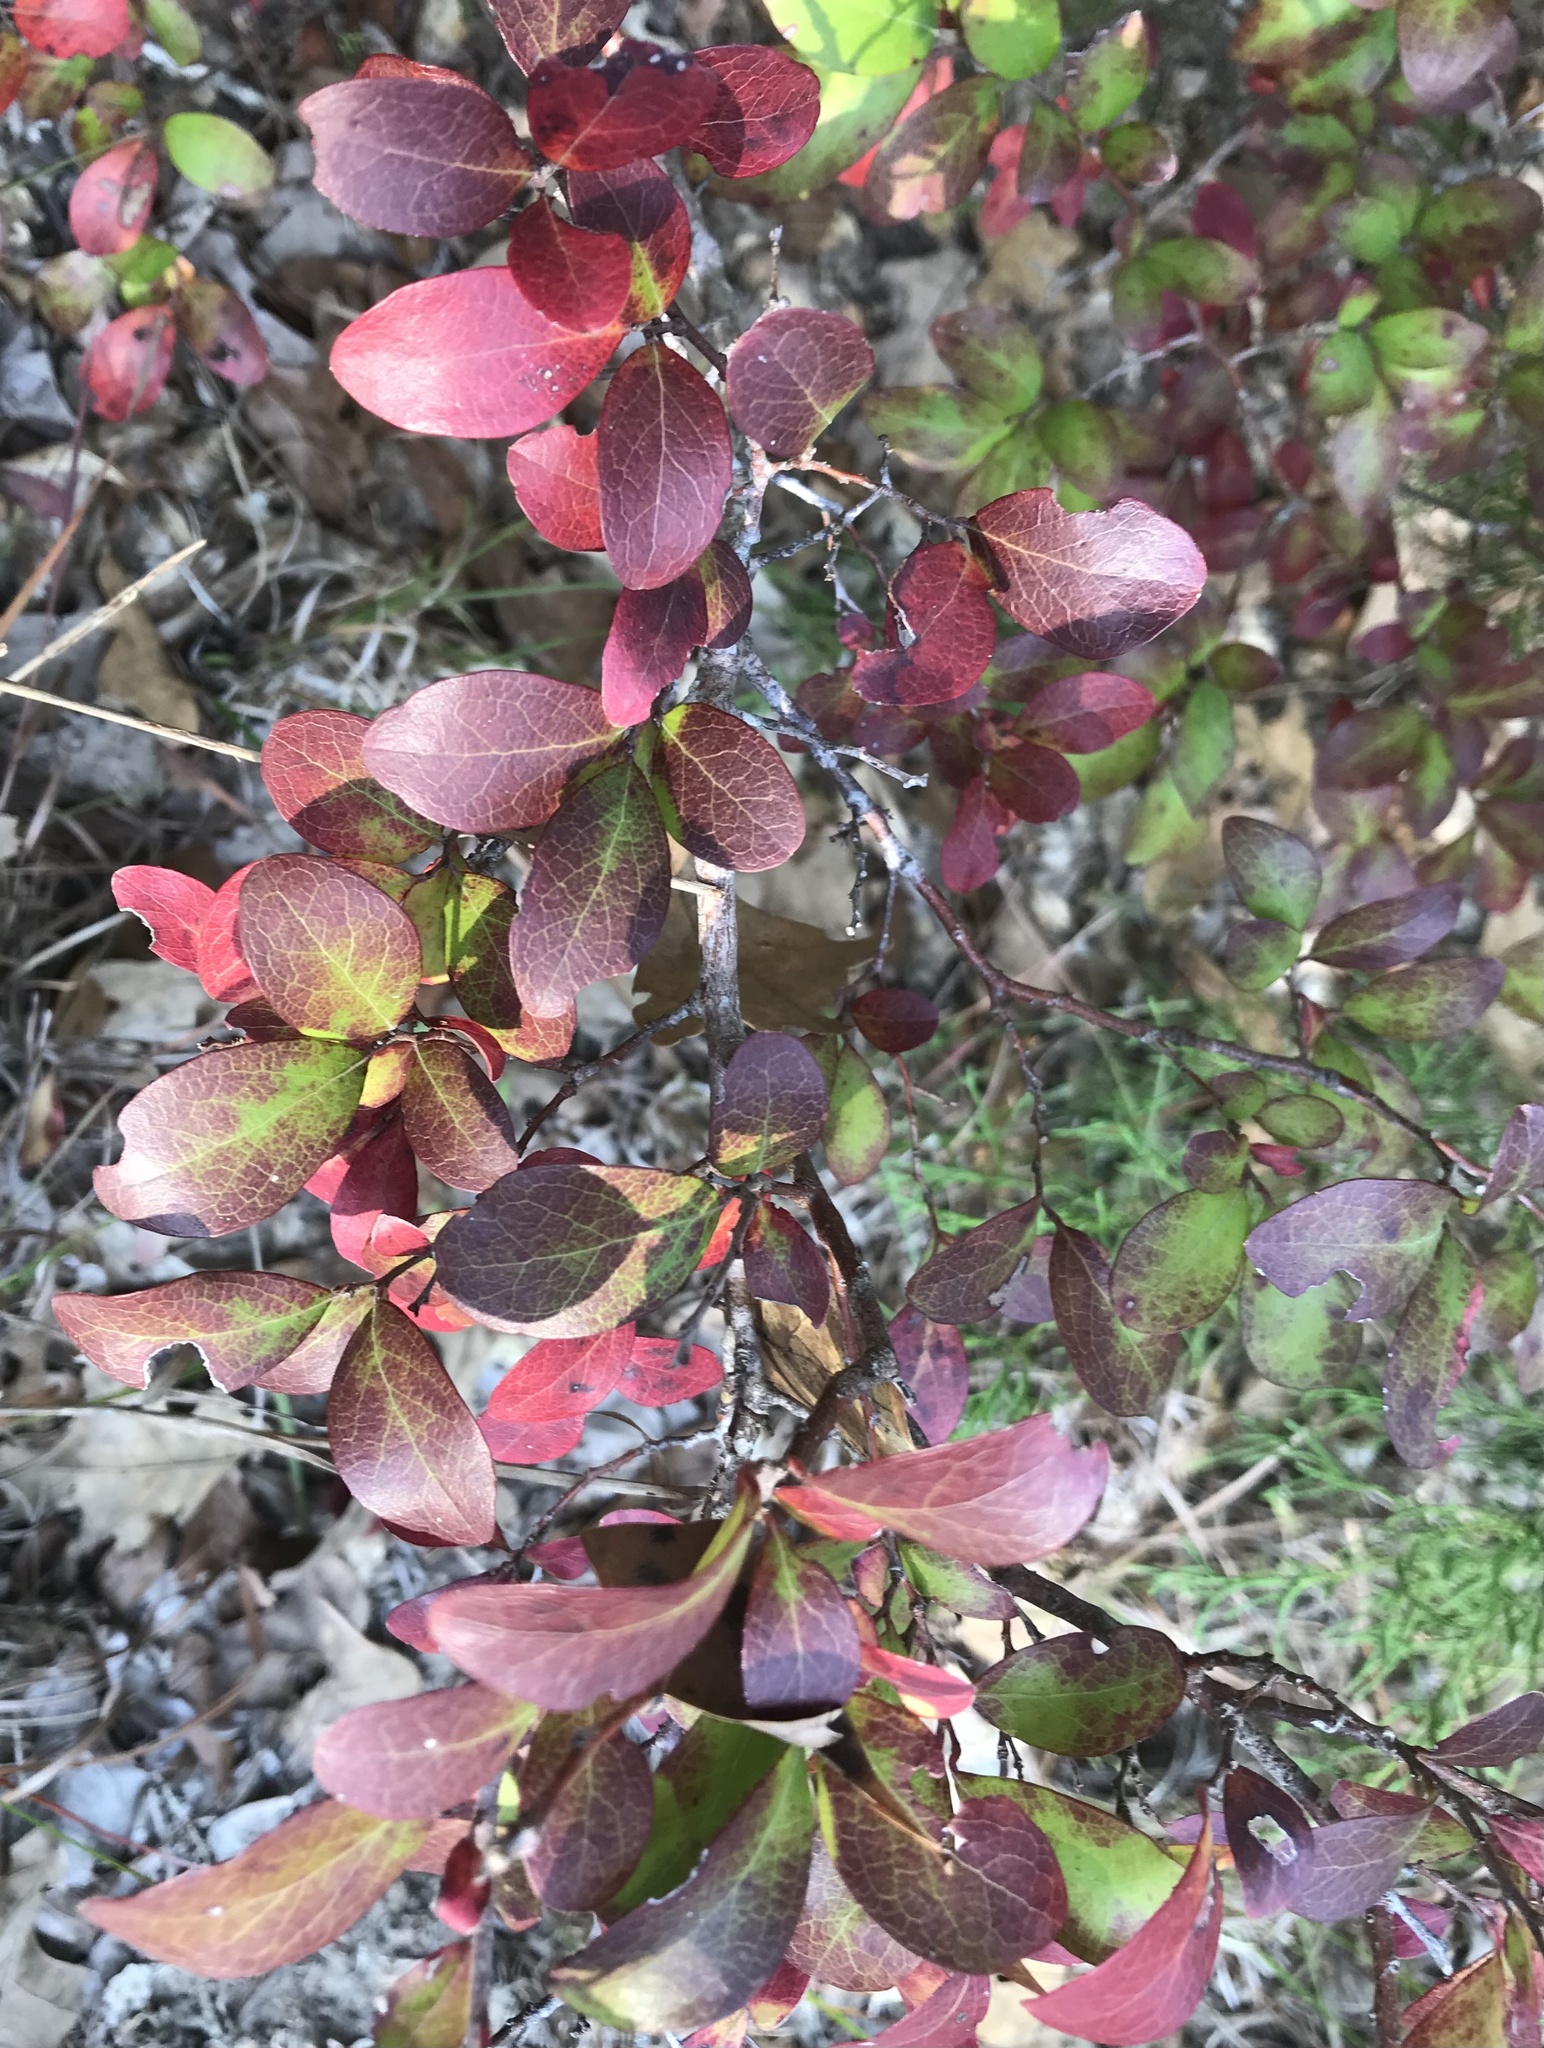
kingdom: Plantae
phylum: Tracheophyta
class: Magnoliopsida
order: Ericales
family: Ericaceae
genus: Vaccinium
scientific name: Vaccinium arboreum
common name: Farkleberry
